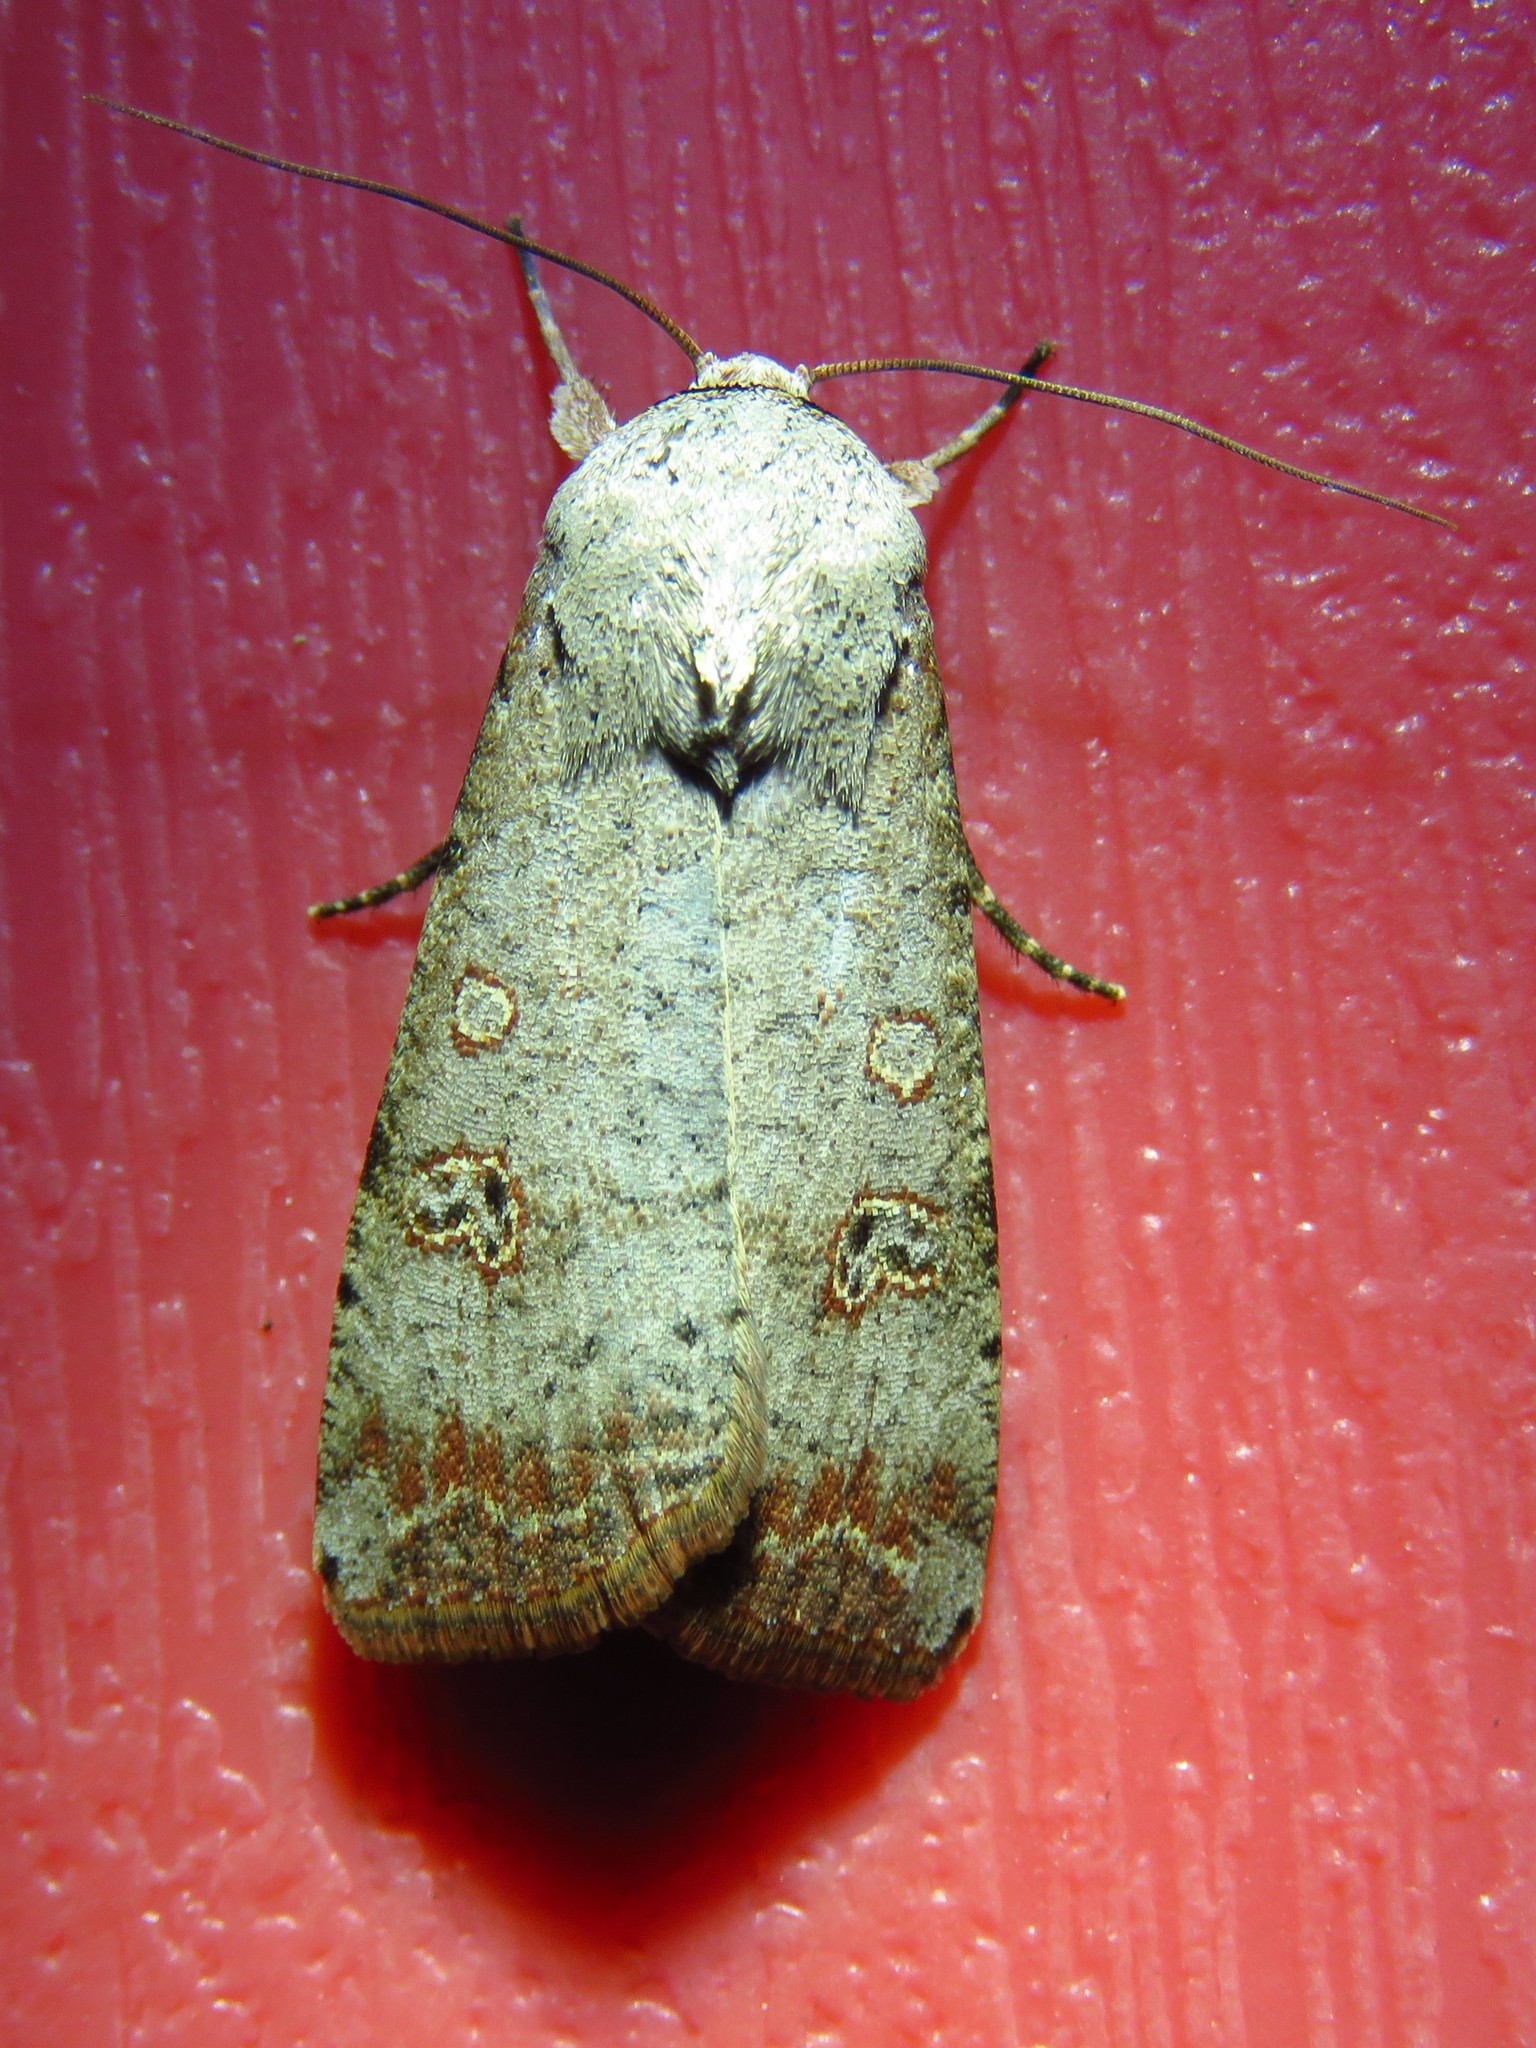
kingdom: Animalia
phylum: Arthropoda
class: Insecta
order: Lepidoptera
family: Noctuidae
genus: Anicla
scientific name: Anicla infecta
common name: Green cutworm
